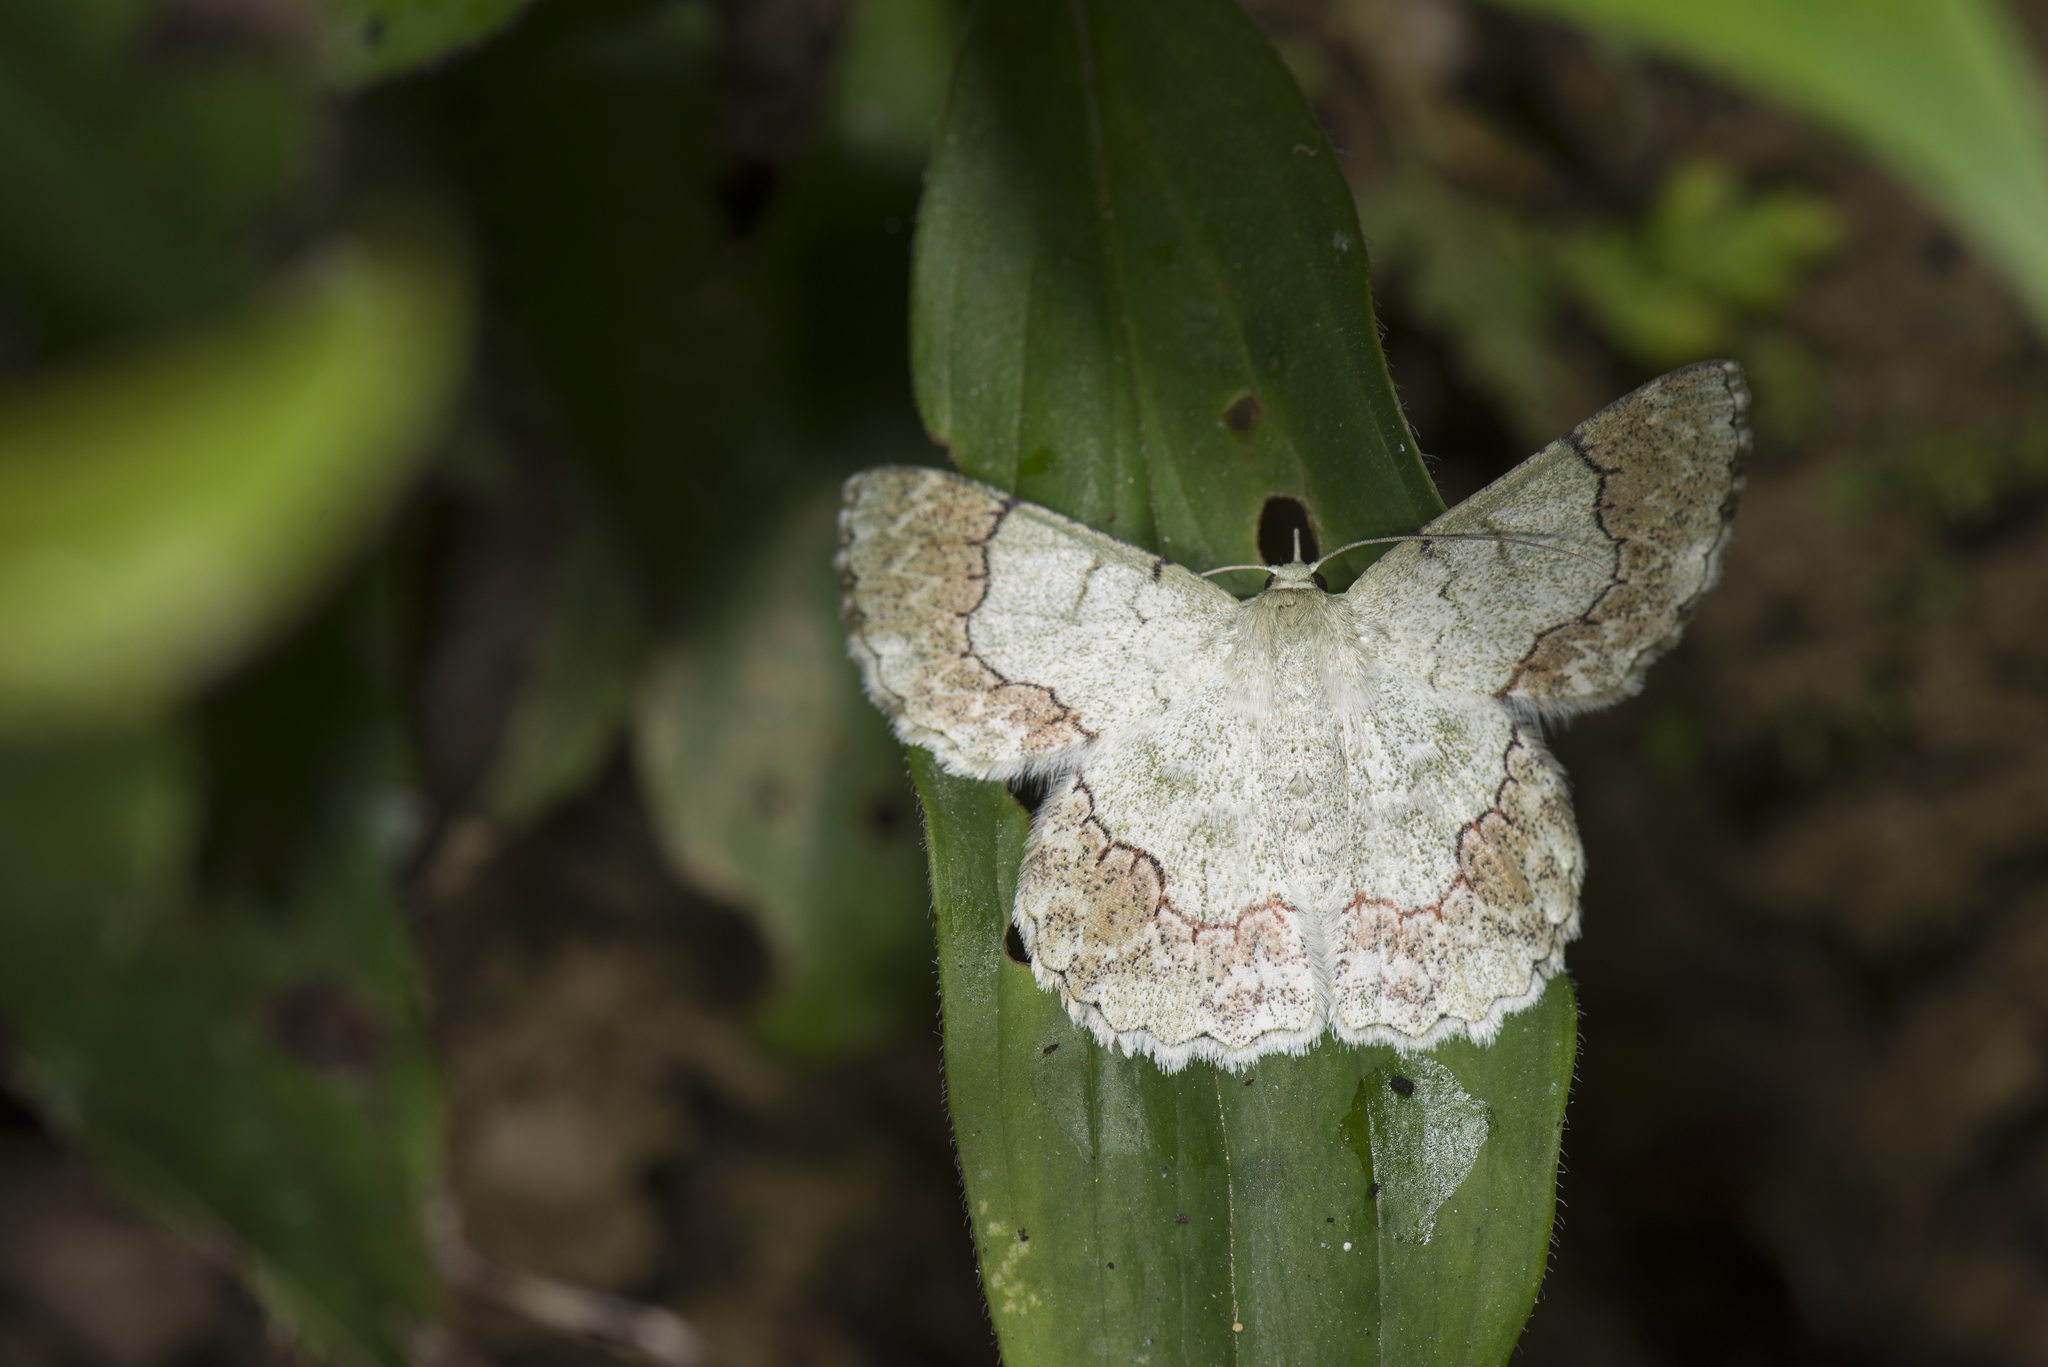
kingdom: Animalia
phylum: Arthropoda
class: Insecta
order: Lepidoptera
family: Geometridae
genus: Pingasa
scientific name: Pingasa ruginaria
